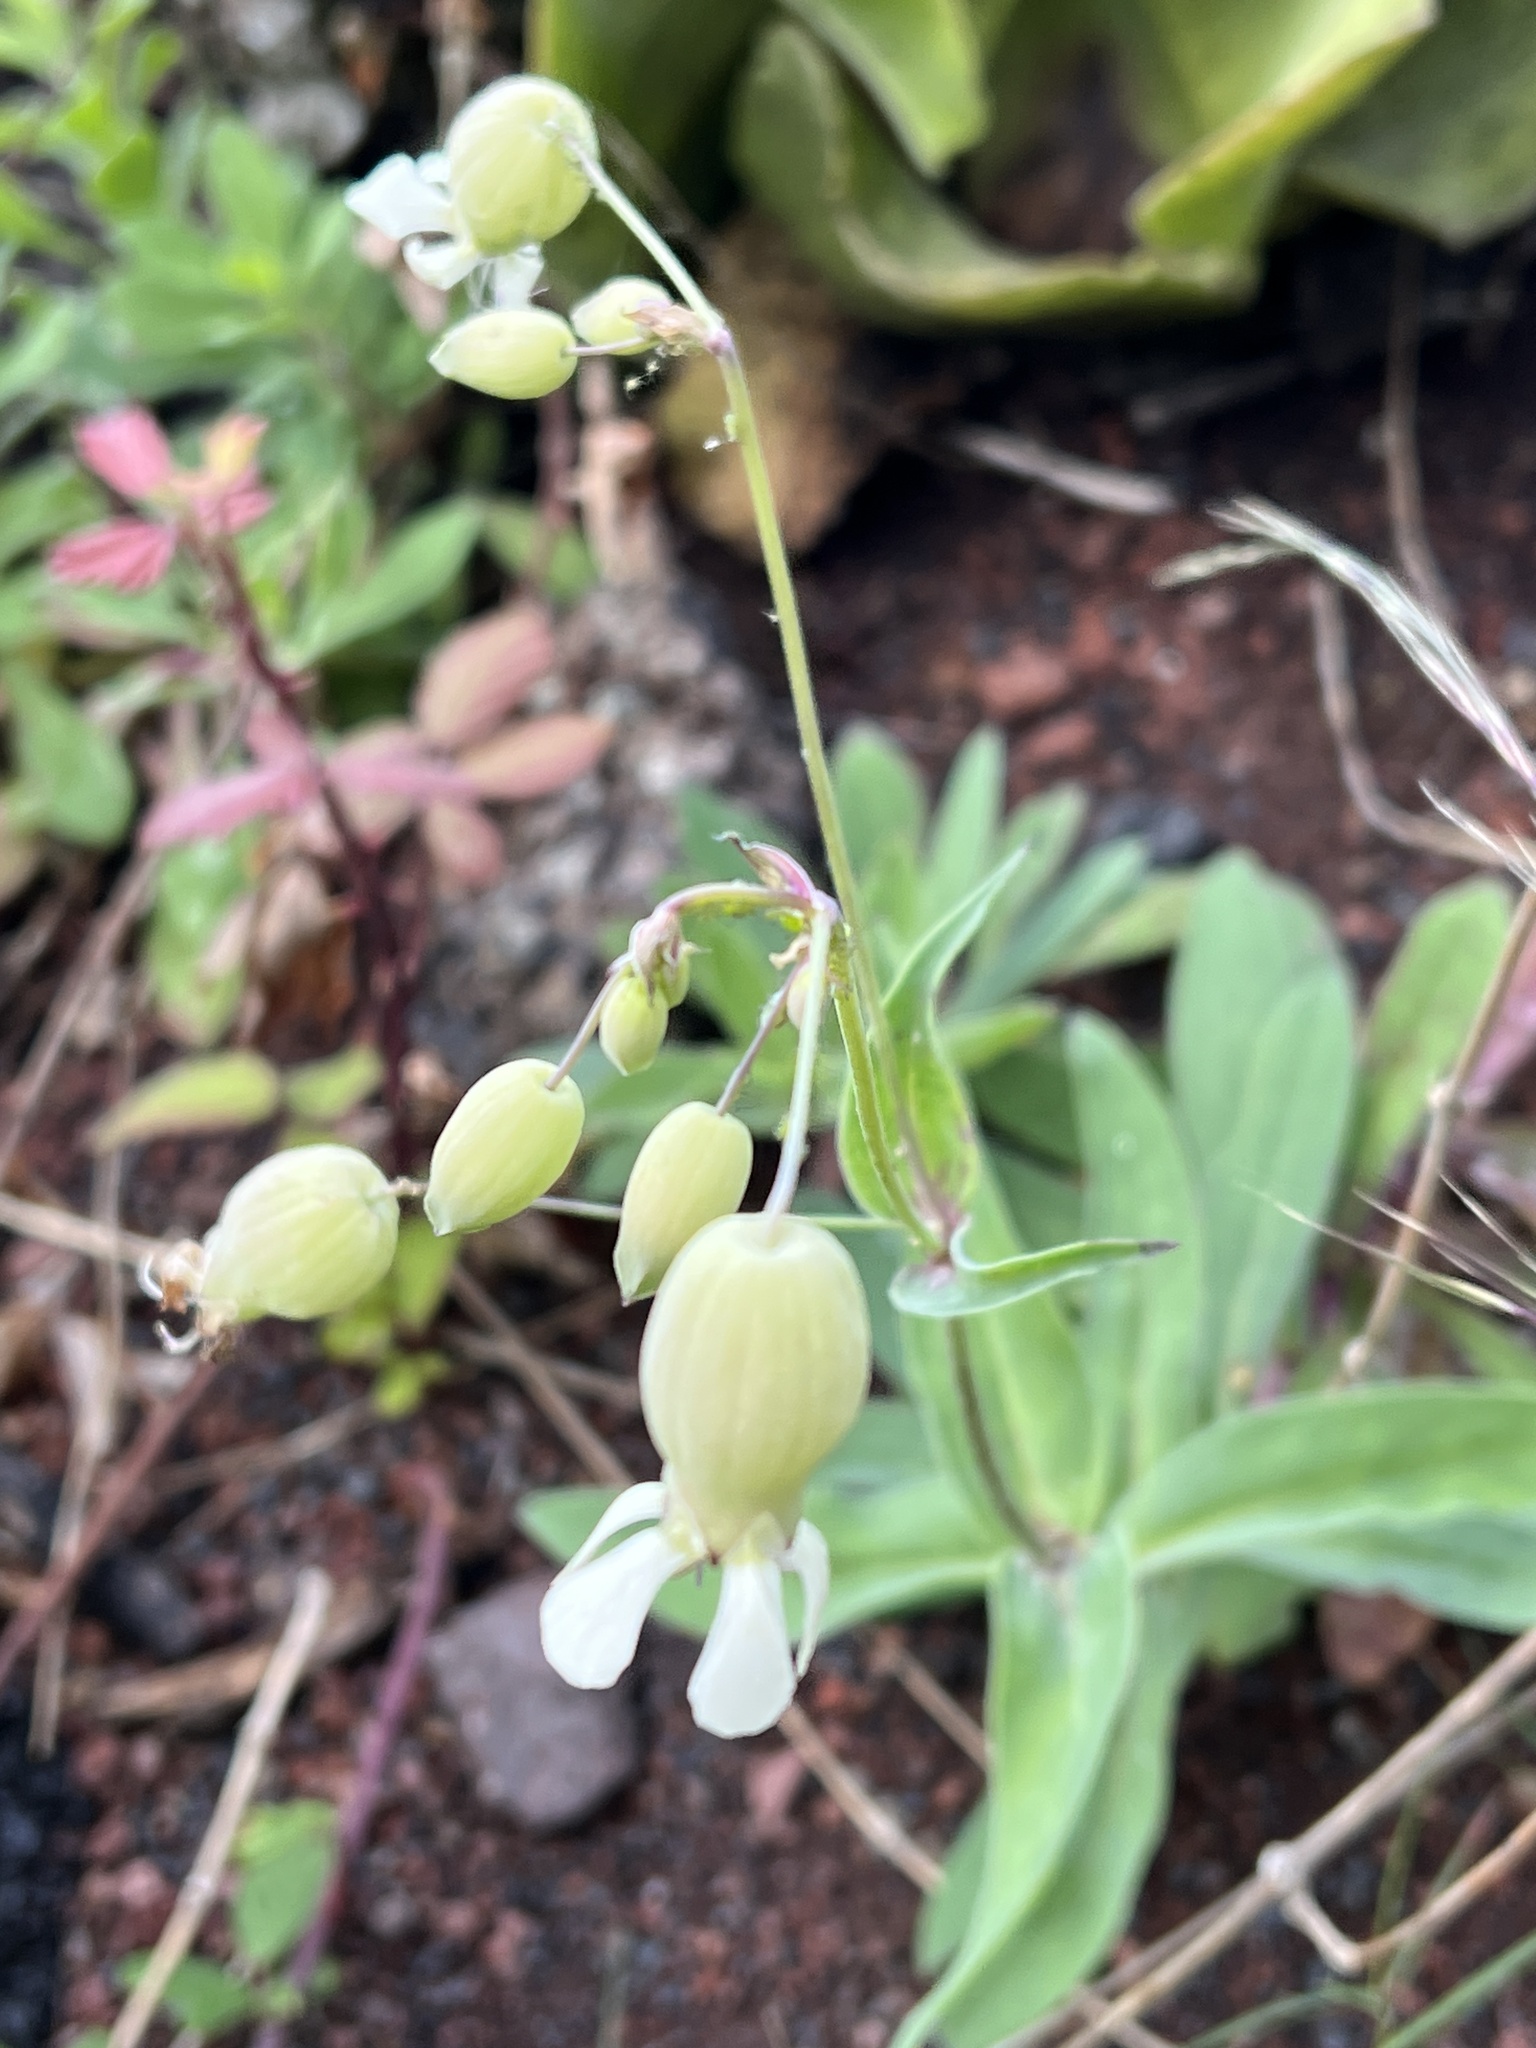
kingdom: Plantae
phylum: Tracheophyta
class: Magnoliopsida
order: Caryophyllales
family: Caryophyllaceae
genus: Silene
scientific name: Silene vulgaris
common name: Bladder campion
